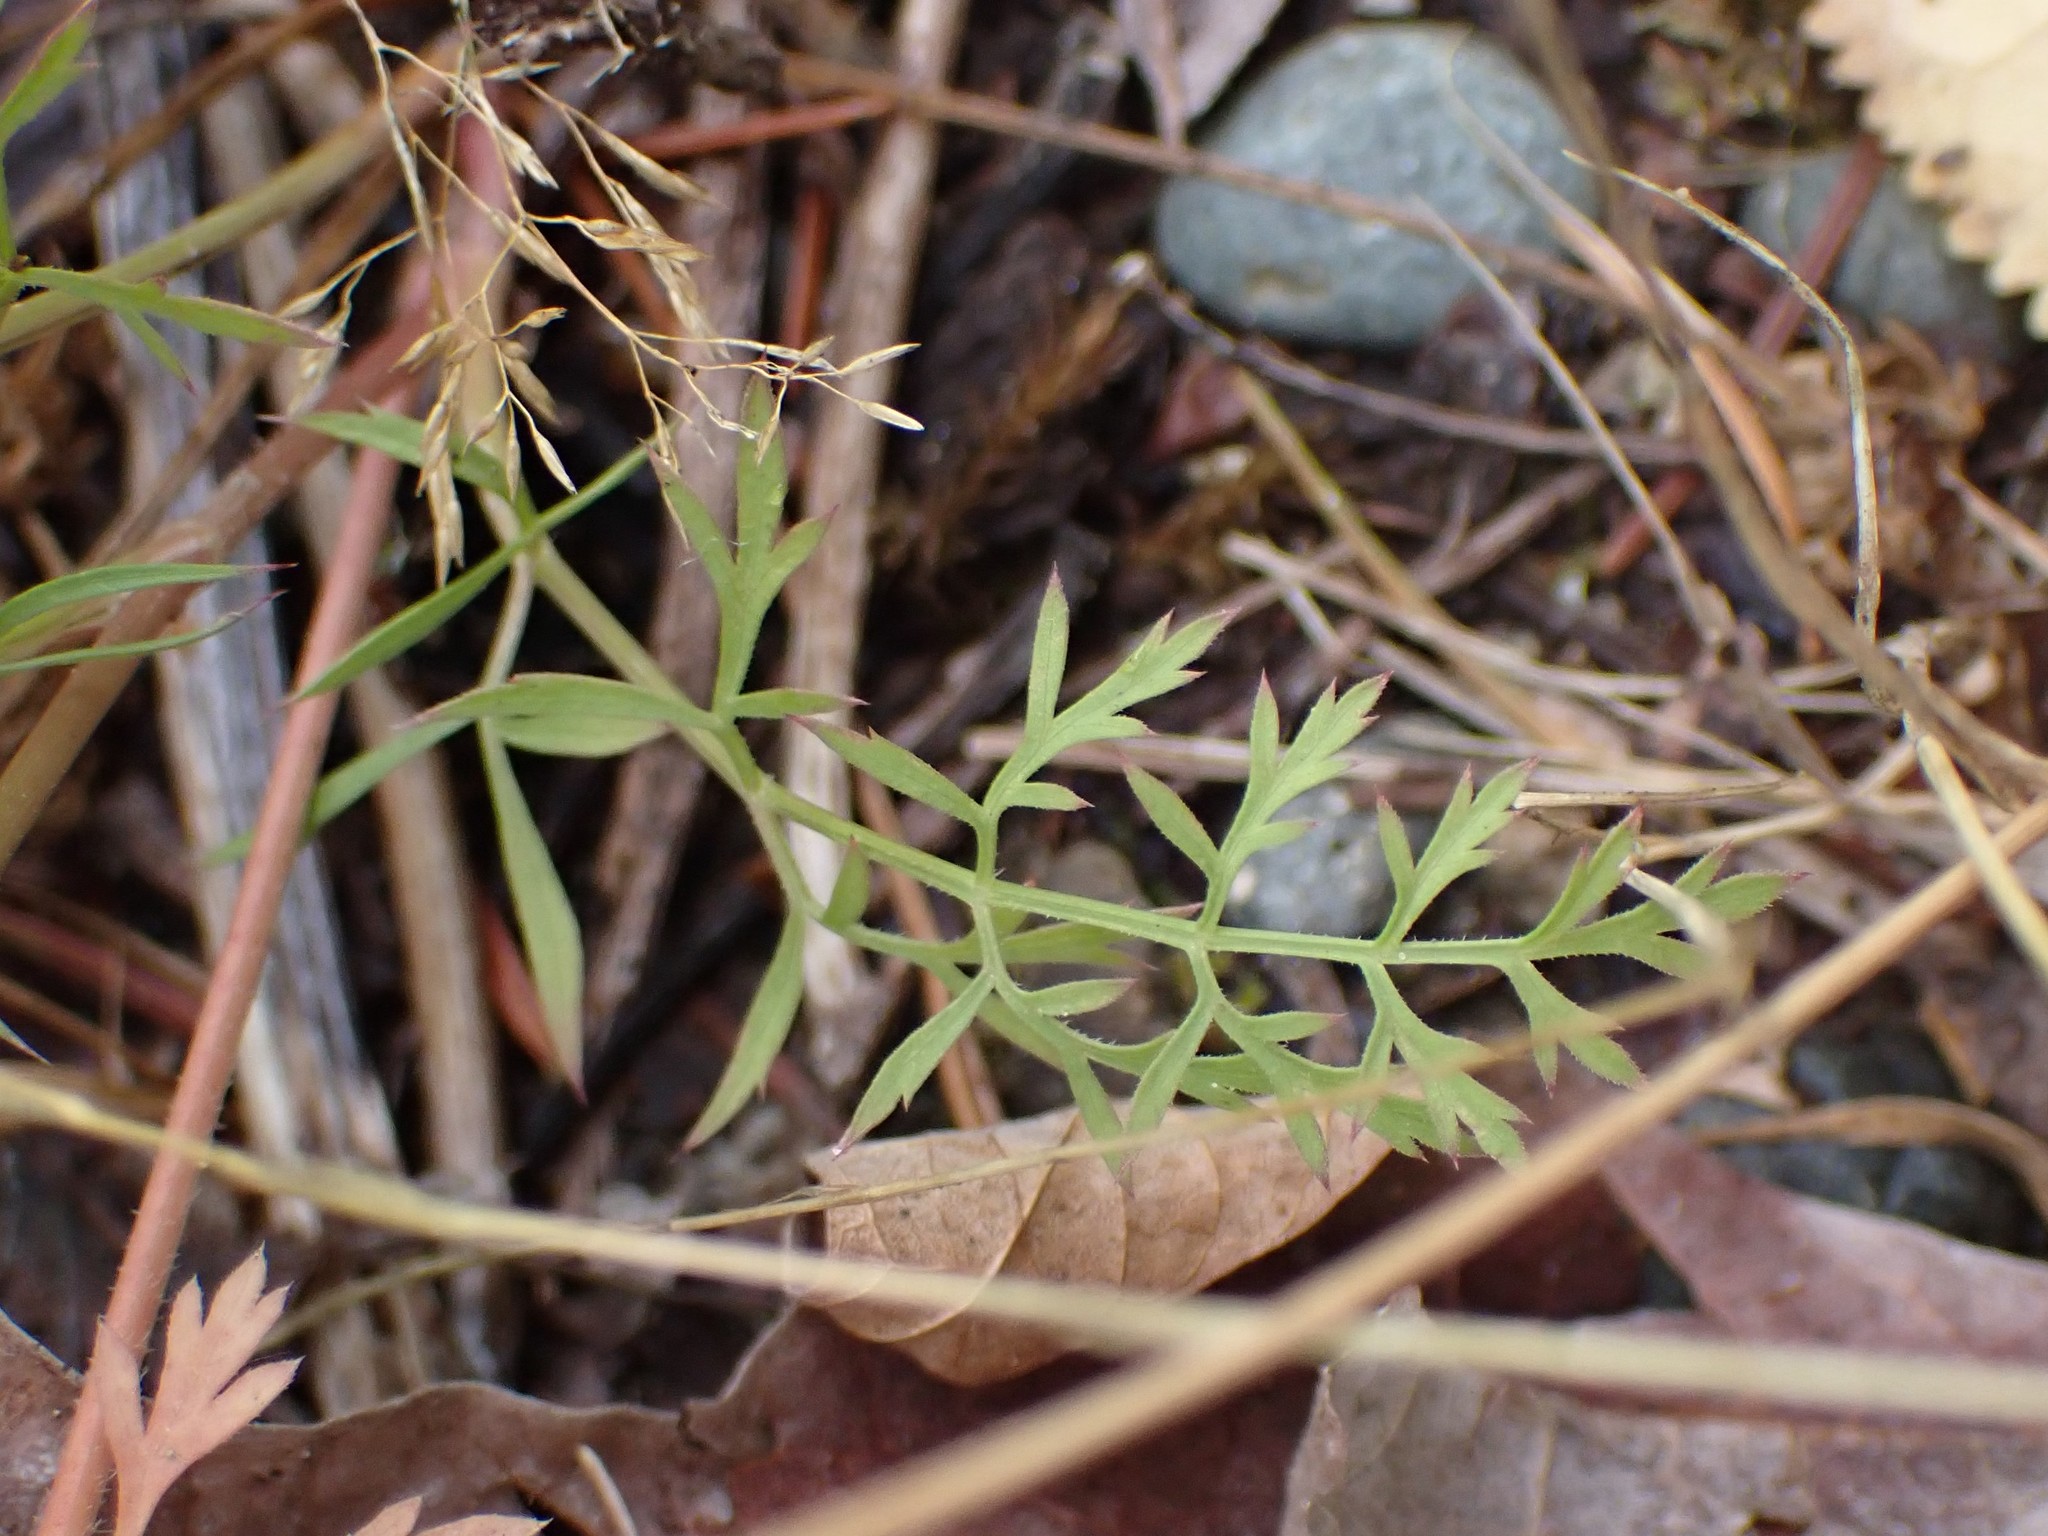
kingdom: Plantae
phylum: Tracheophyta
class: Magnoliopsida
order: Apiales
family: Apiaceae
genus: Daucus
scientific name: Daucus carota
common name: Wild carrot
